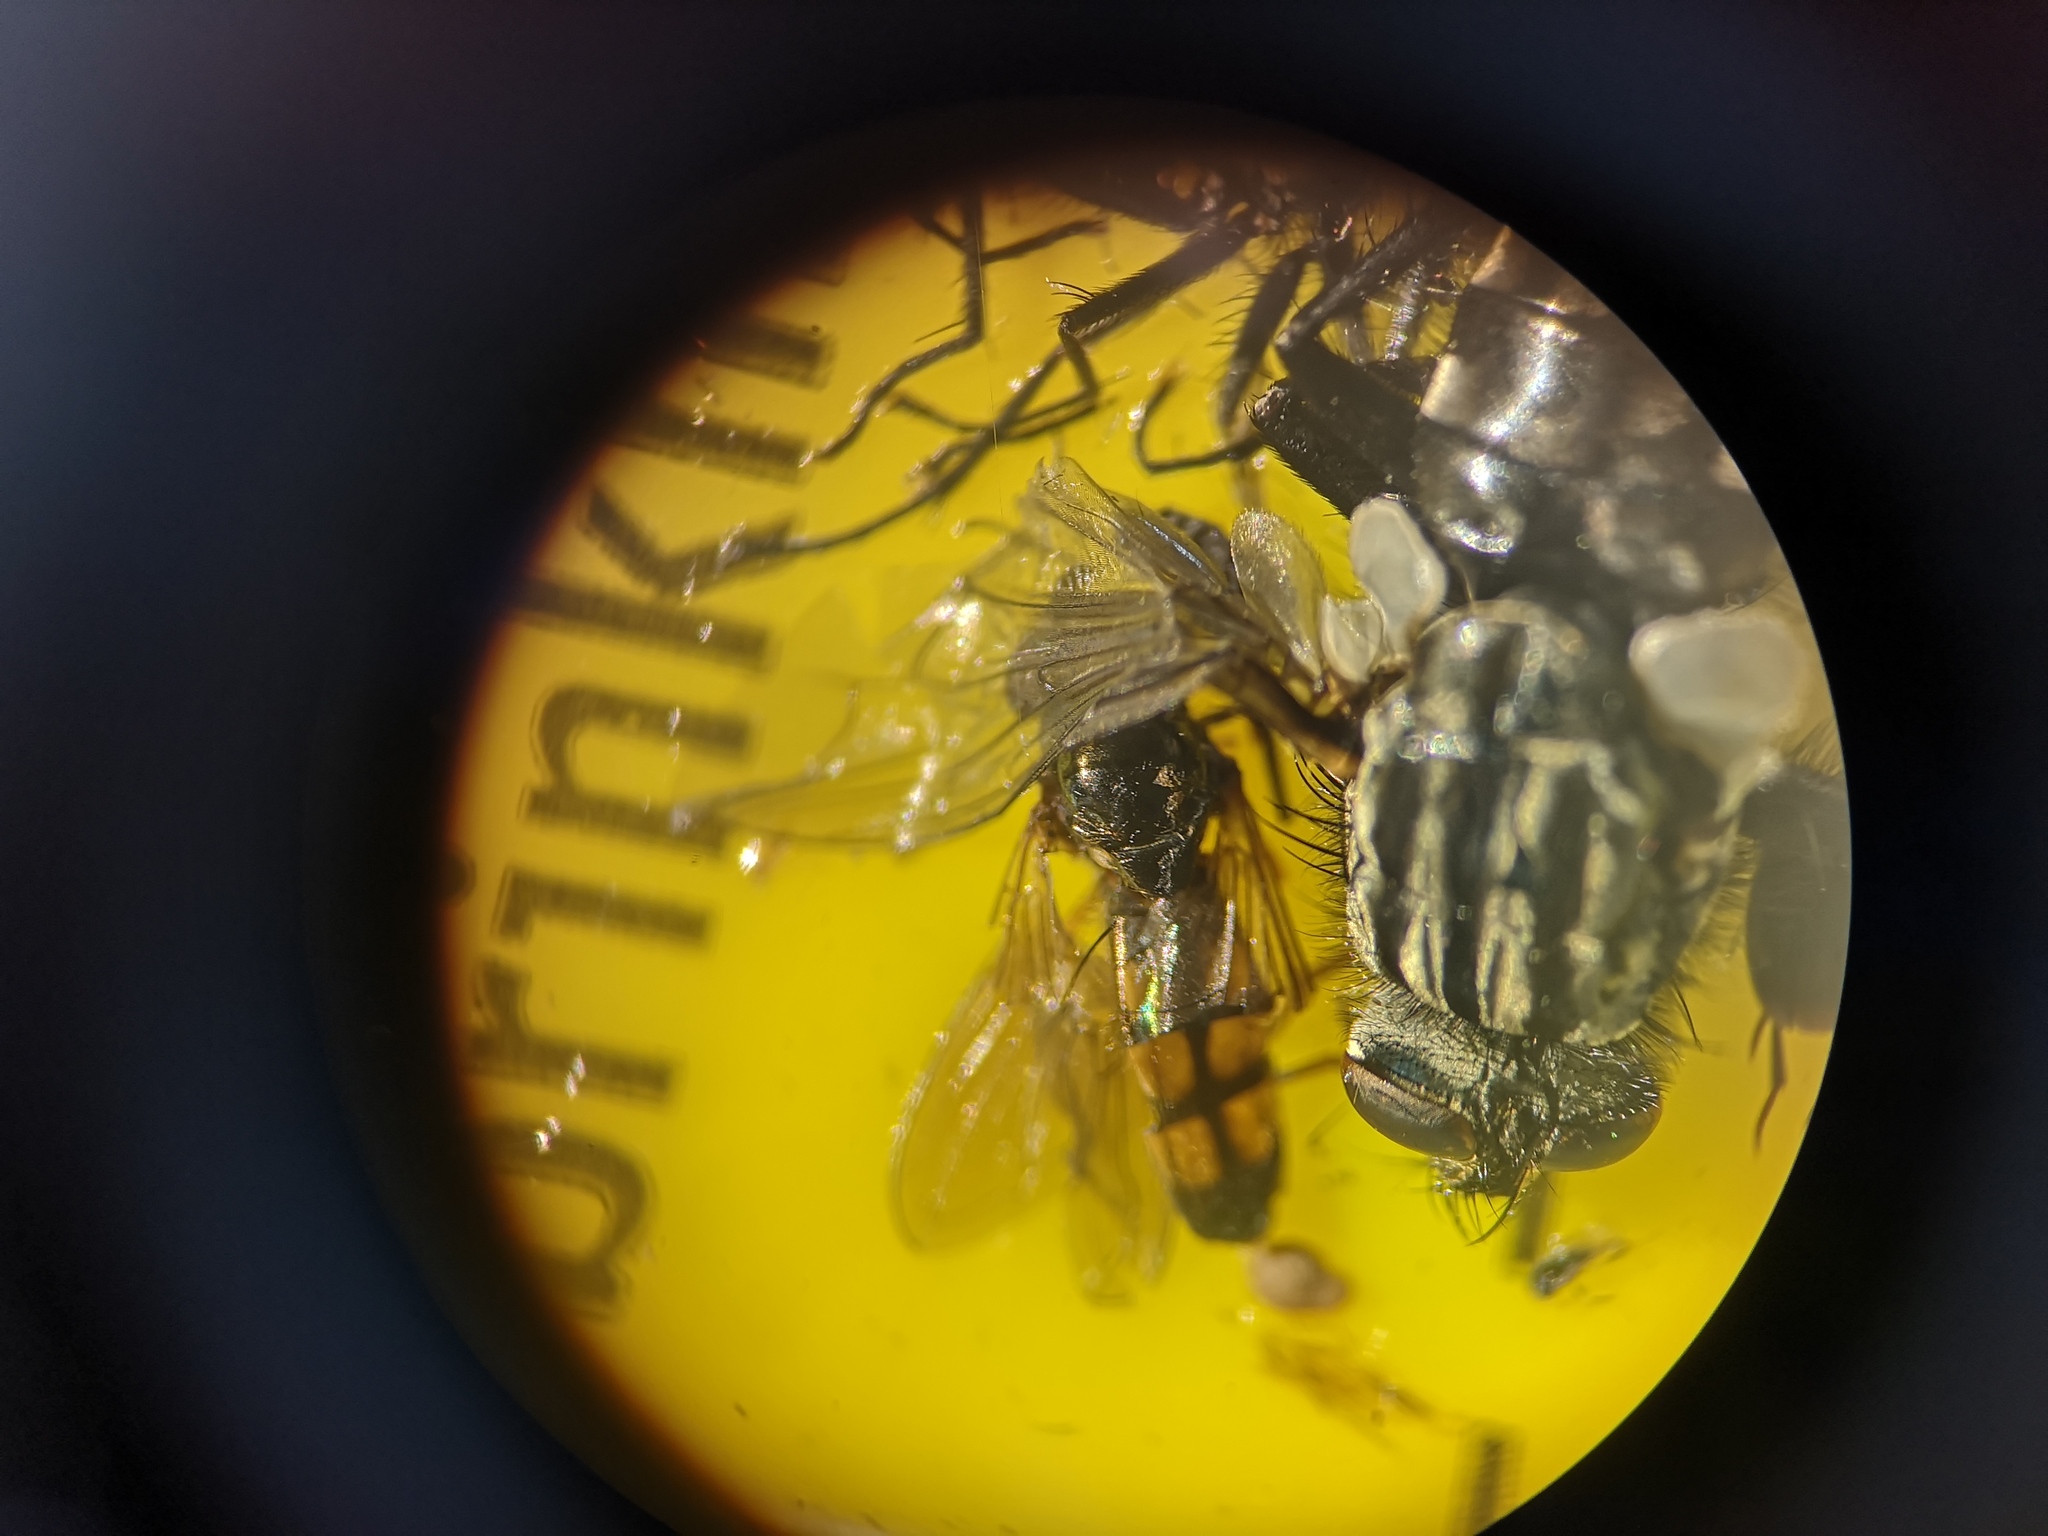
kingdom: Animalia
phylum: Arthropoda
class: Insecta
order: Diptera
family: Syrphidae
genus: Melanostoma
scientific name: Melanostoma mellina
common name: Hover fly
